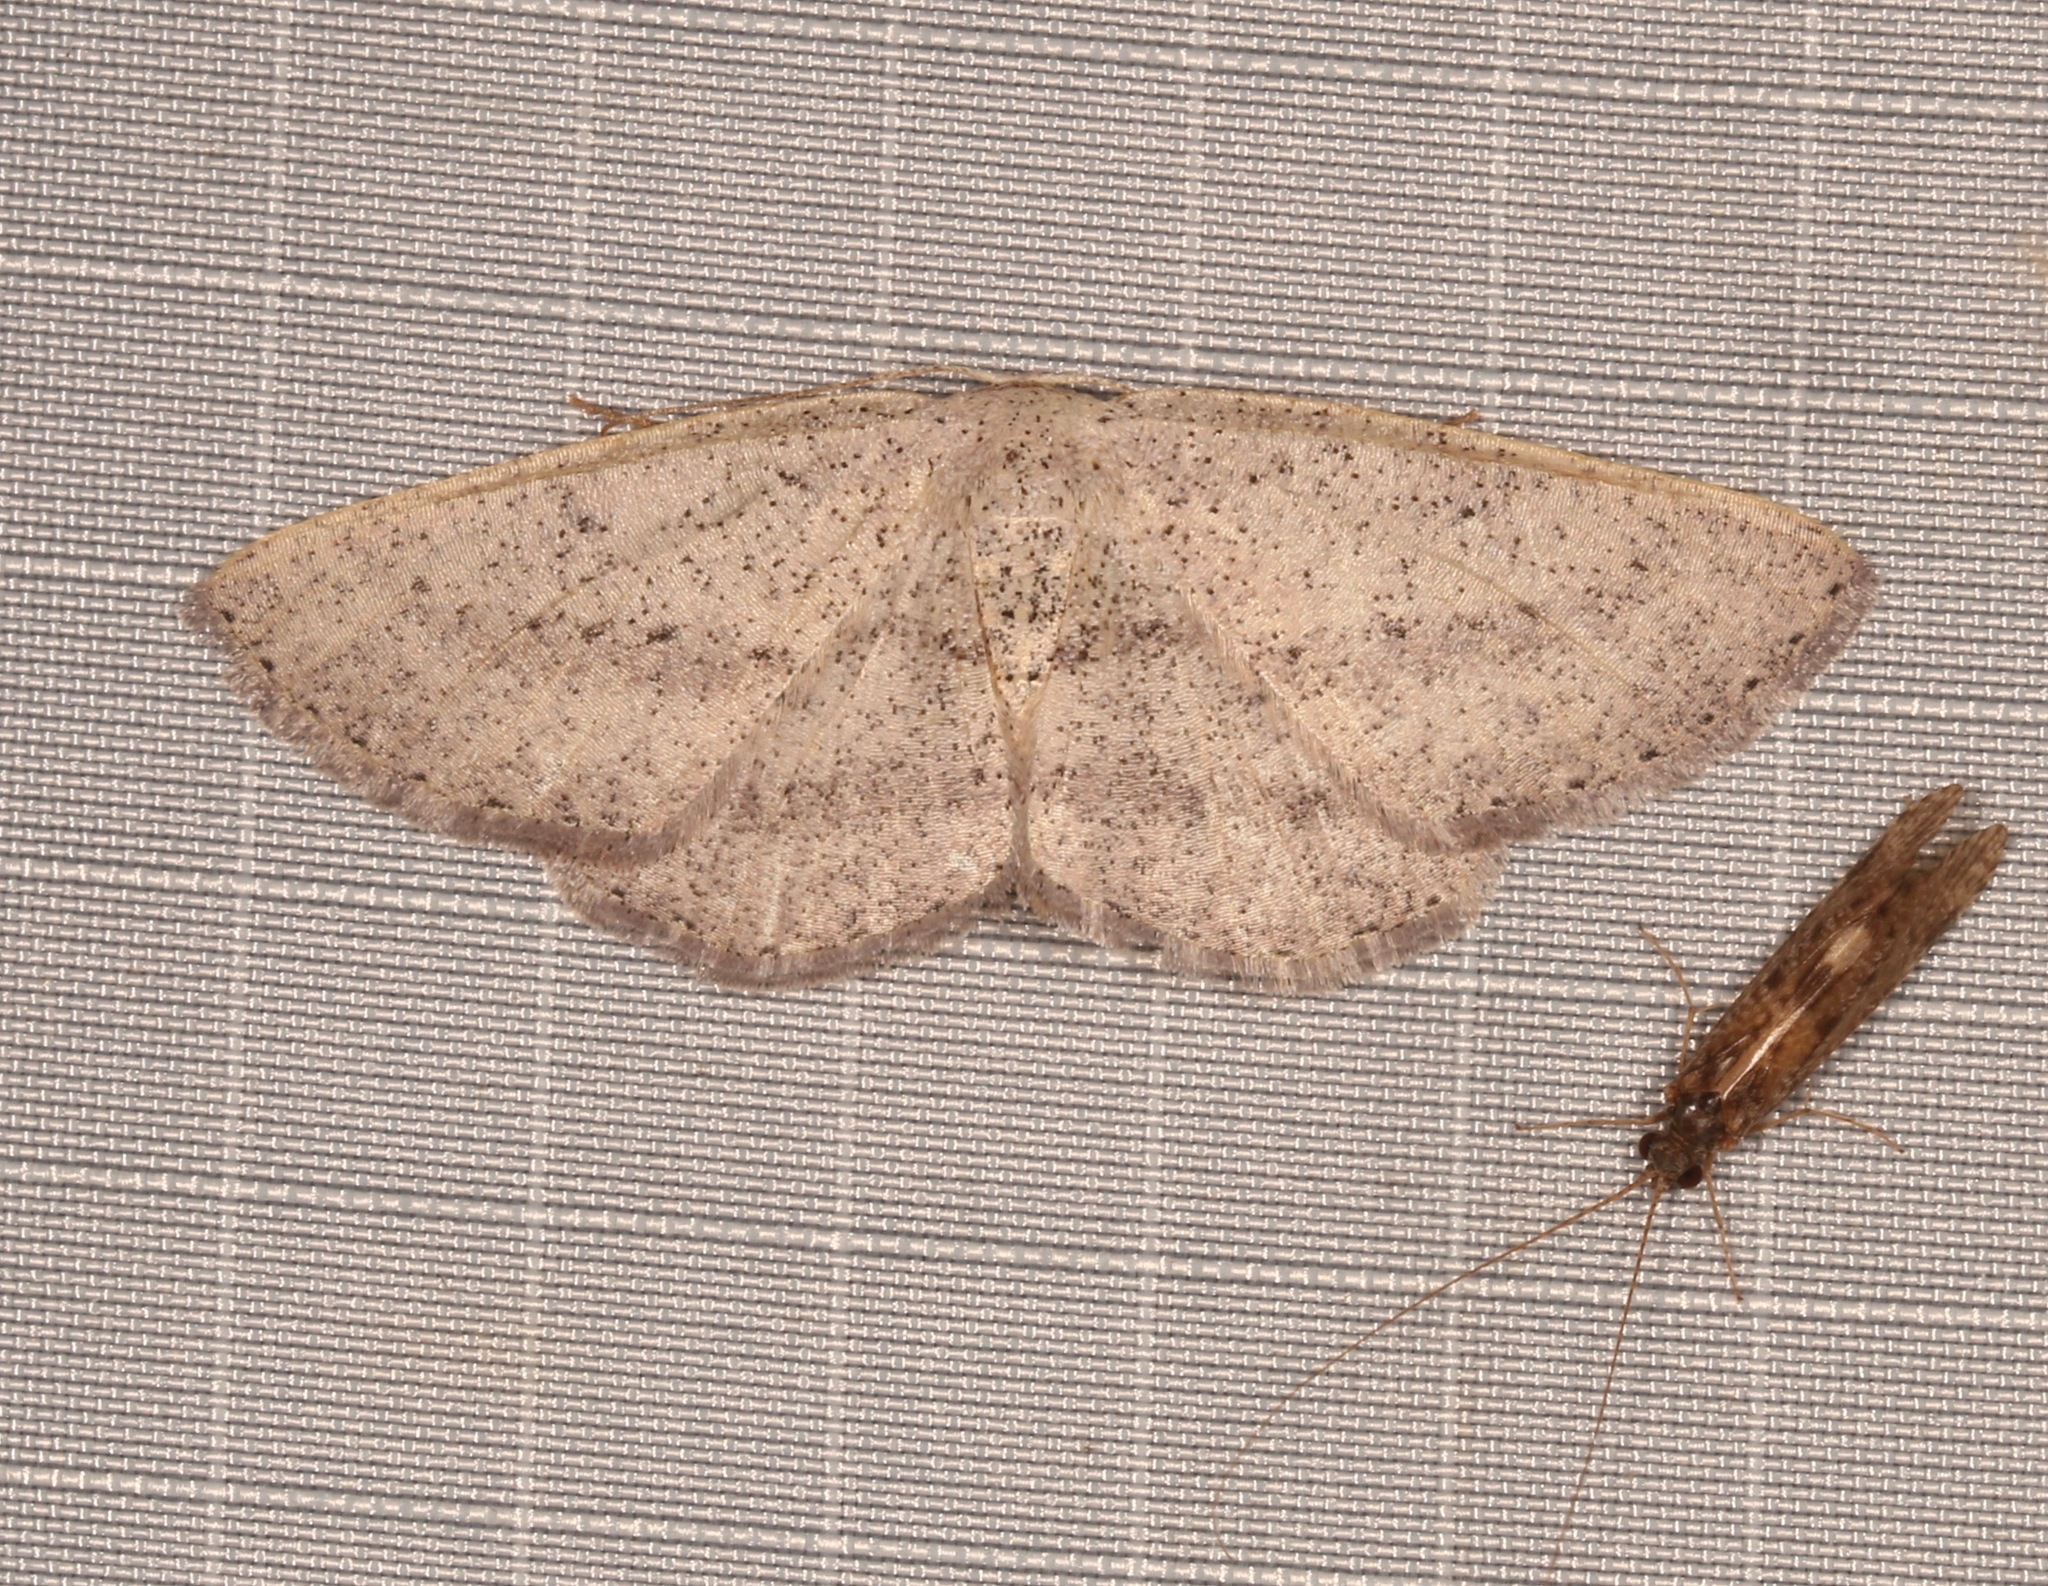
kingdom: Animalia
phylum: Arthropoda
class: Insecta
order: Lepidoptera
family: Geometridae
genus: Glena
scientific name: Glena cognataria
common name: Blueberry gray
